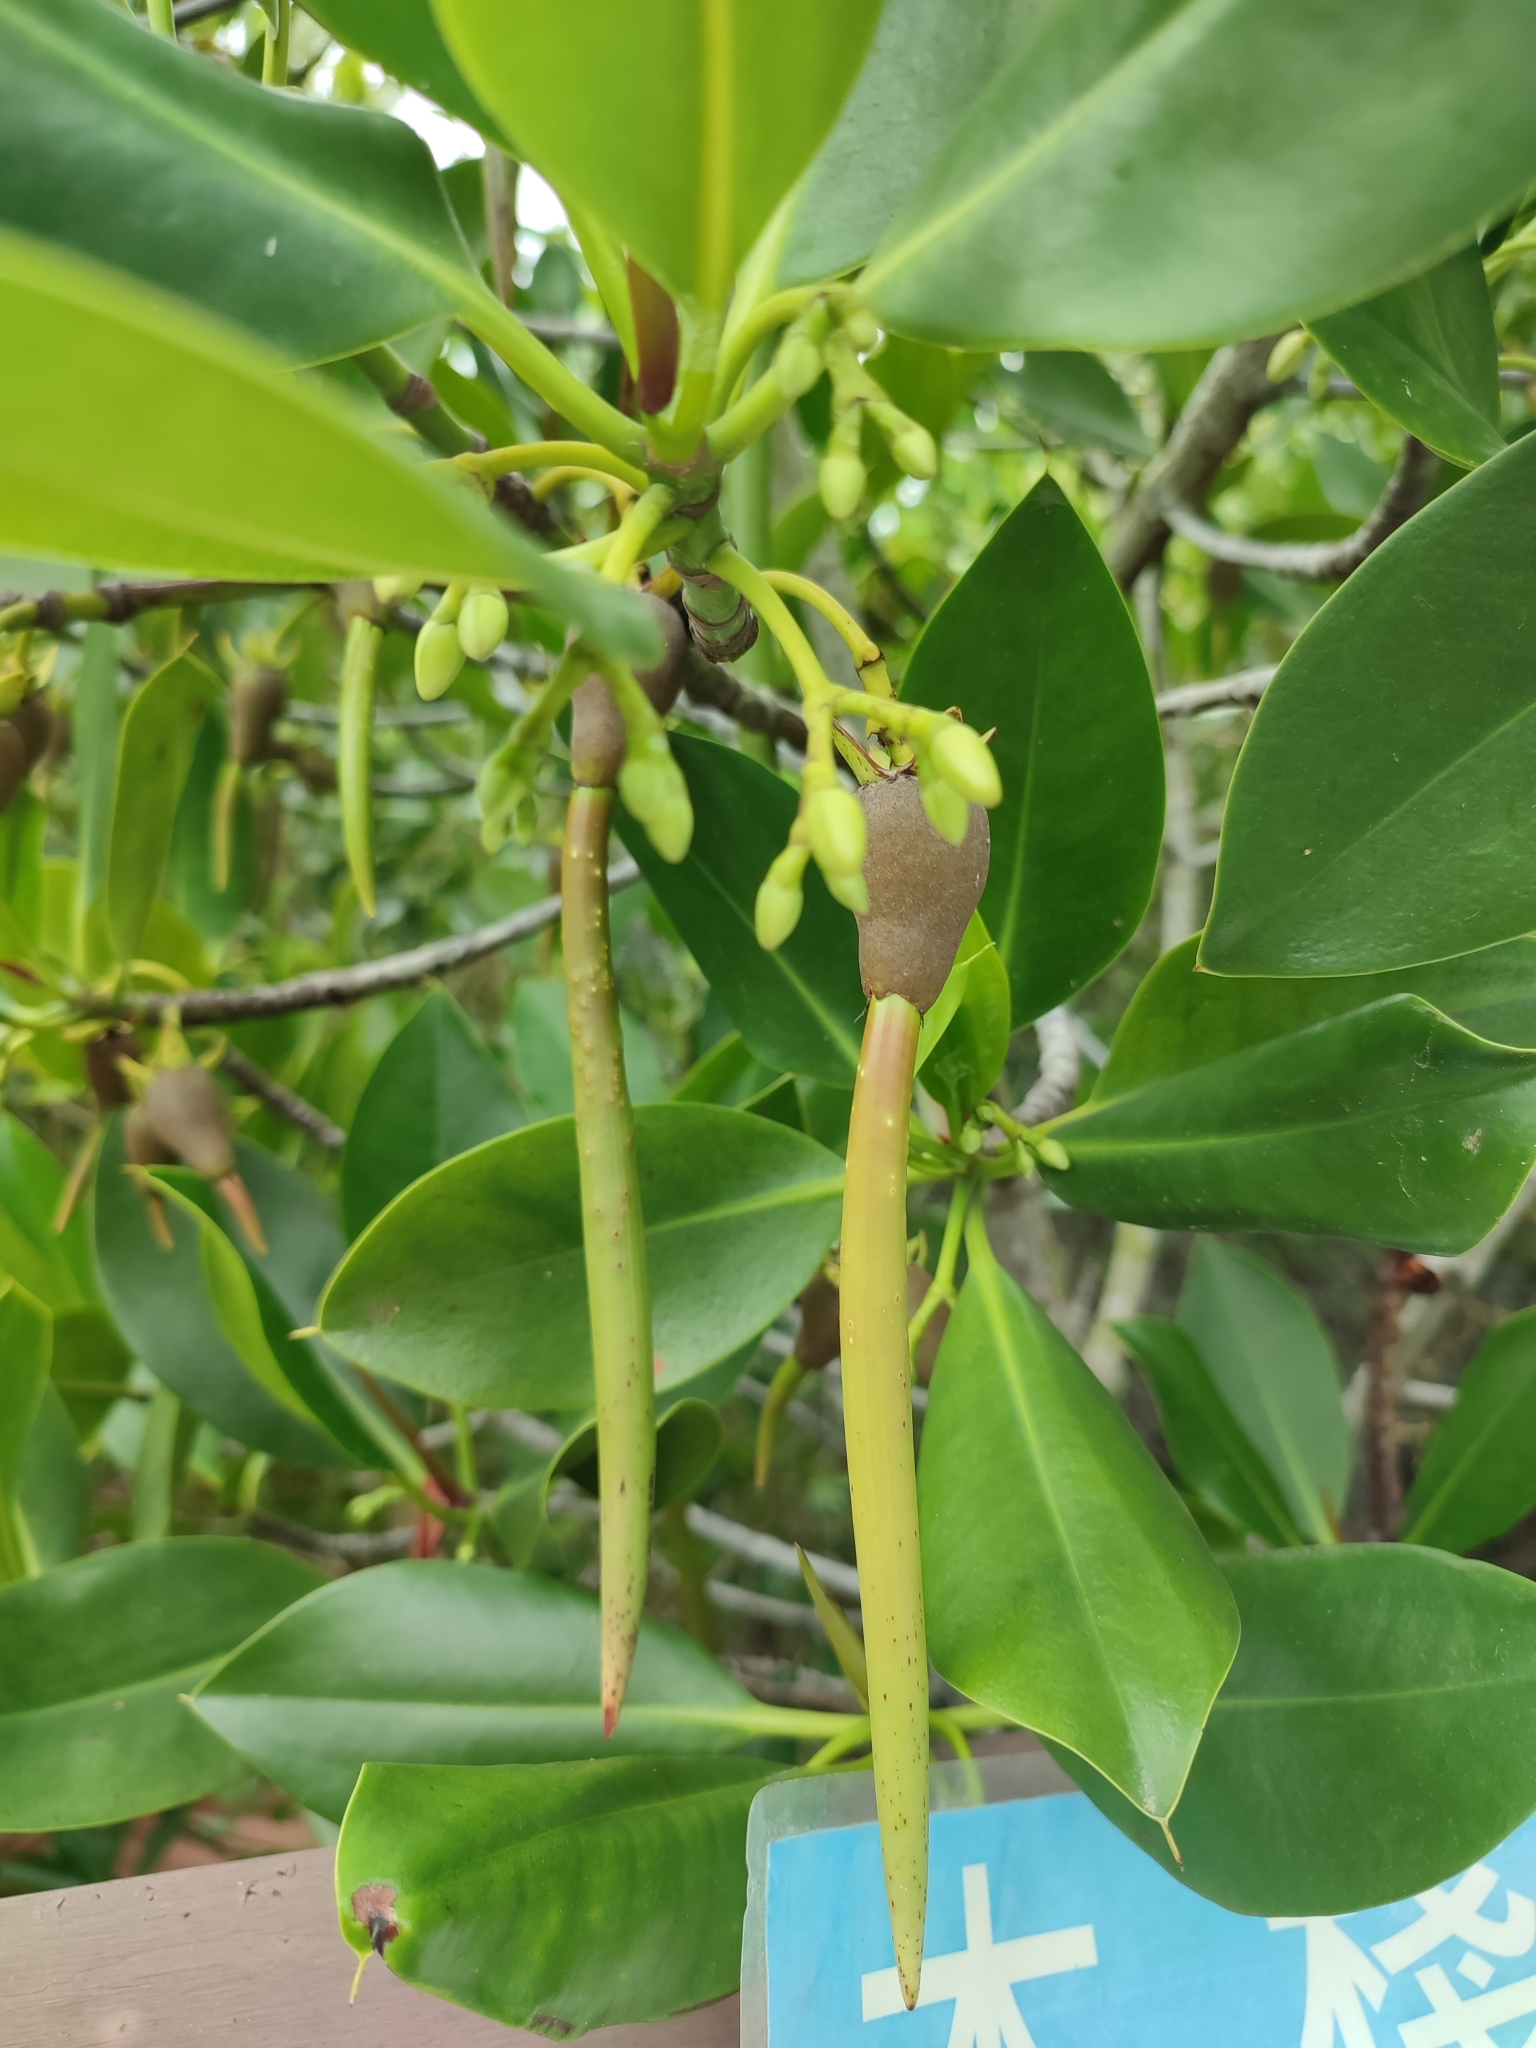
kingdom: Plantae
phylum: Tracheophyta
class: Magnoliopsida
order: Malpighiales
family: Rhizophoraceae
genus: Rhizophora
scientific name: Rhizophora stylosa
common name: Red mangrove
